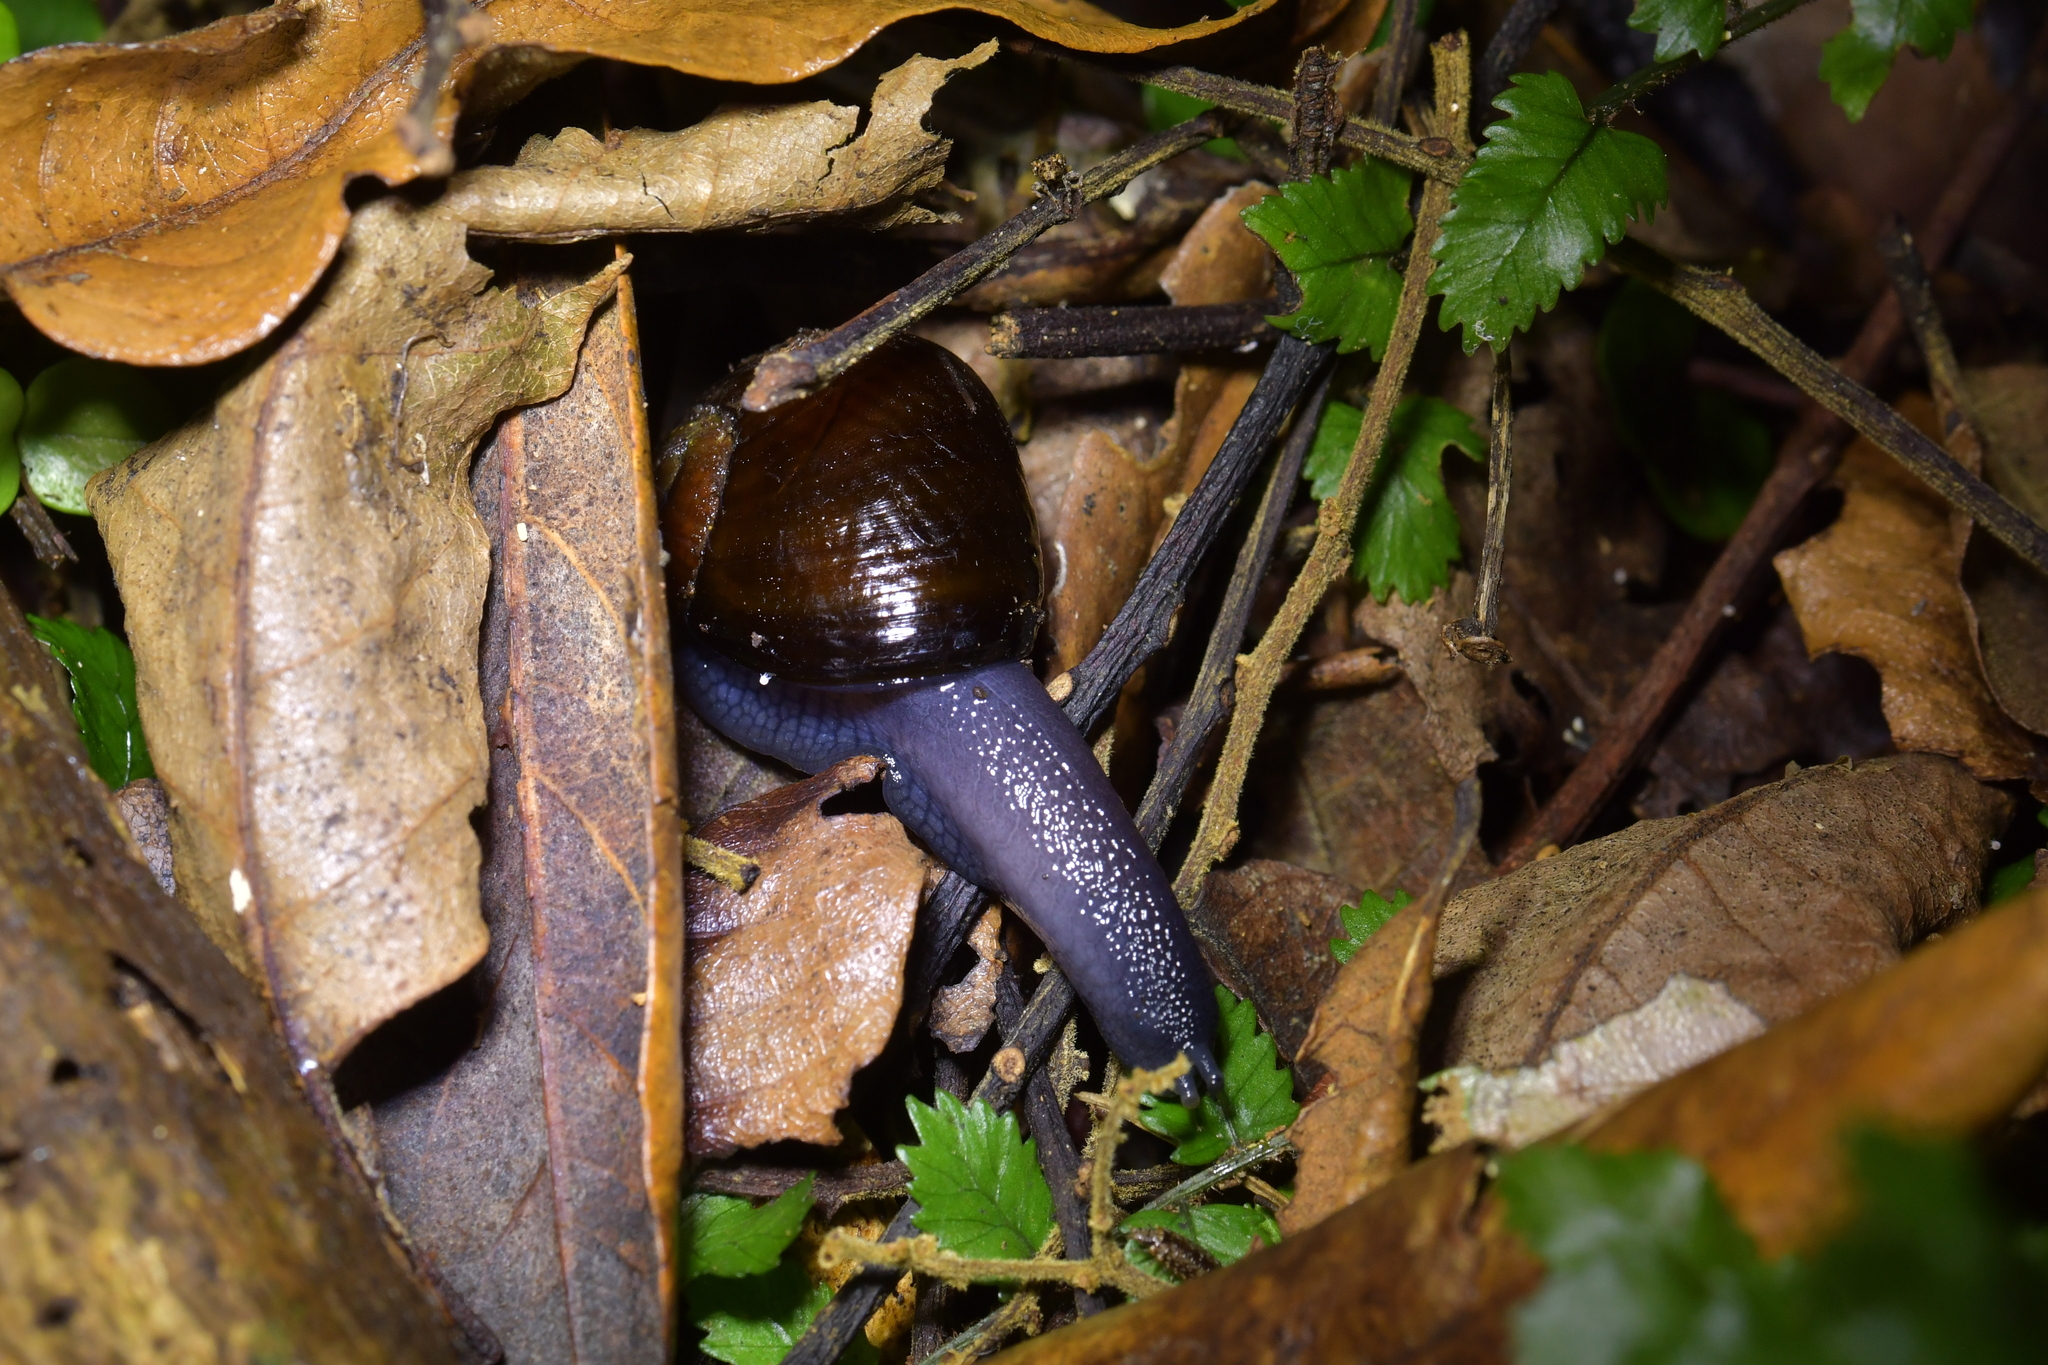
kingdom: Animalia
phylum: Mollusca
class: Gastropoda
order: Stylommatophora
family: Rhytididae
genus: Wainuia
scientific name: Wainuia urnula
